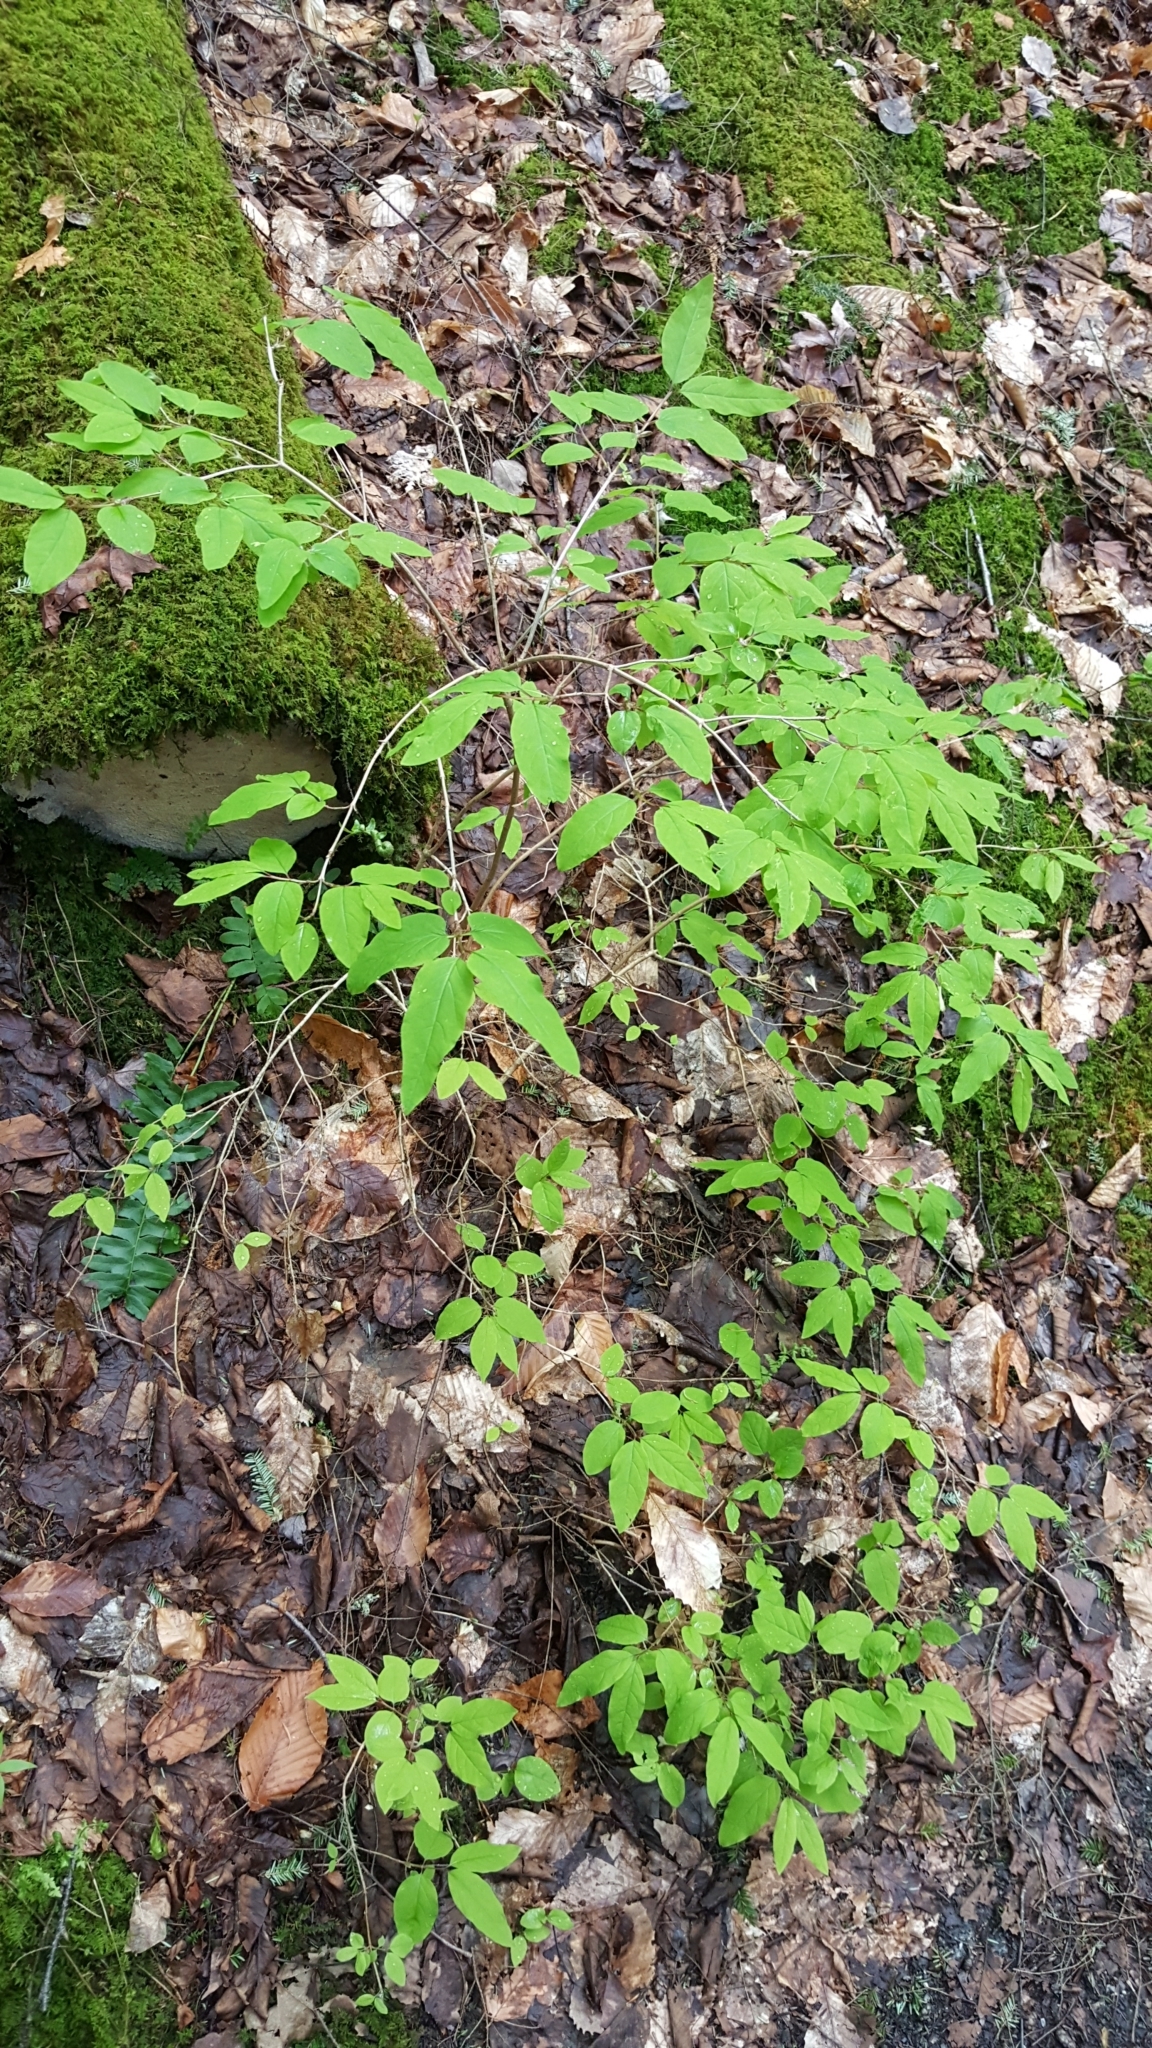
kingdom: Plantae
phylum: Tracheophyta
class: Magnoliopsida
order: Dipsacales
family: Caprifoliaceae
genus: Lonicera
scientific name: Lonicera canadensis
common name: American fly-honeysuckle
